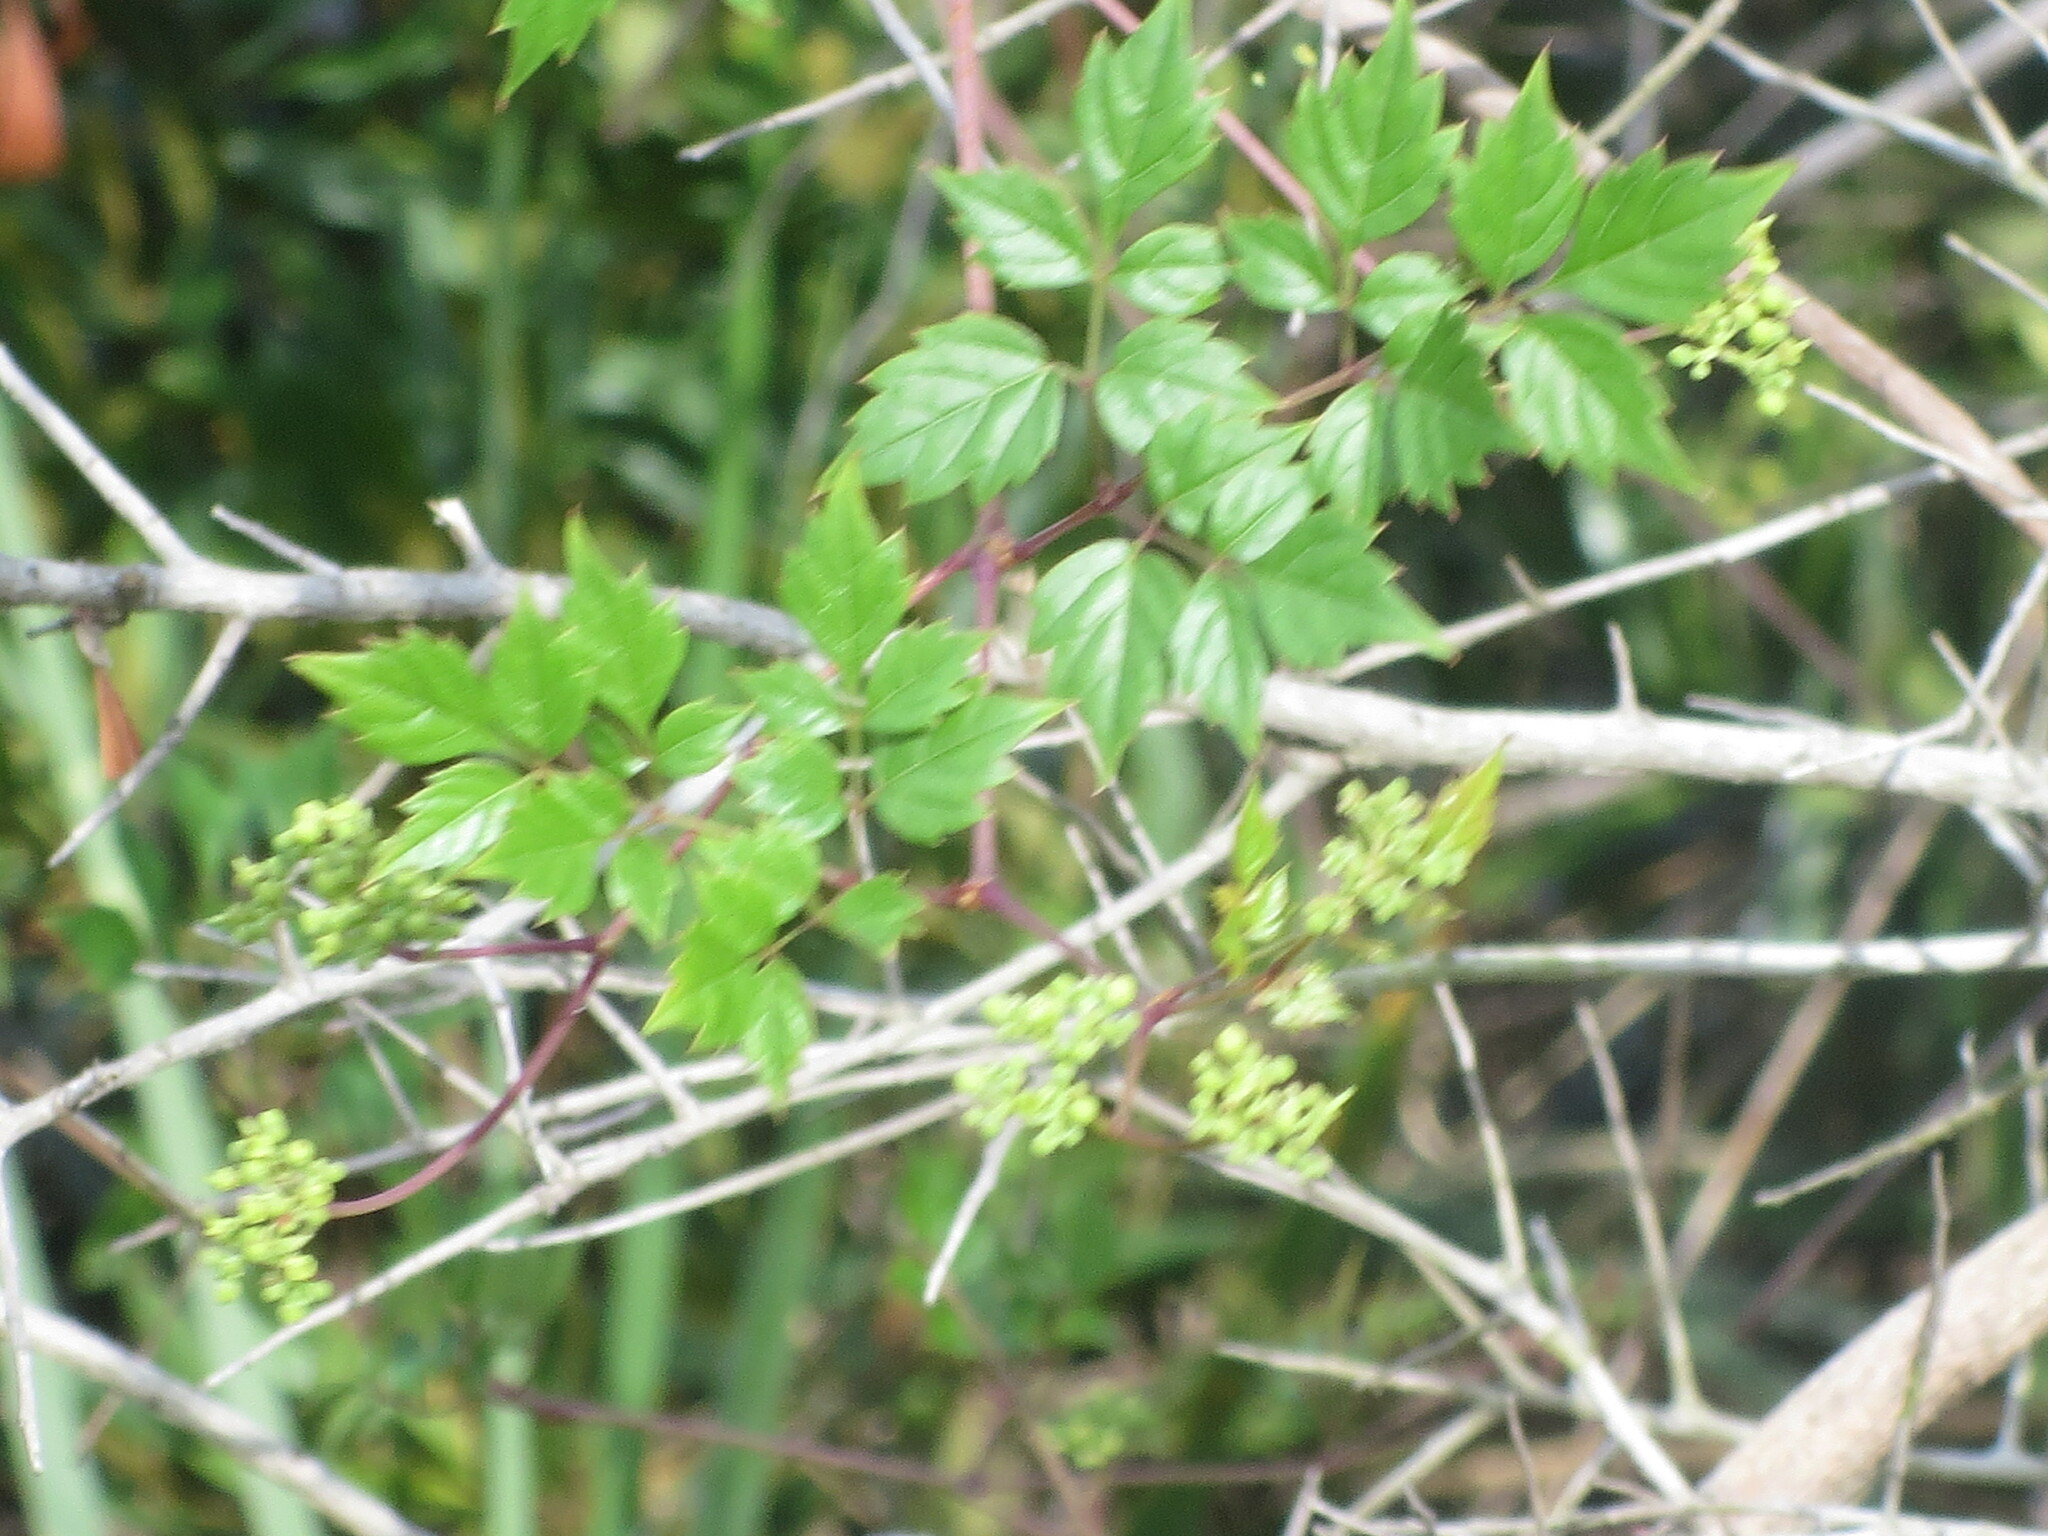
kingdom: Plantae
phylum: Tracheophyta
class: Magnoliopsida
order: Vitales
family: Vitaceae
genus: Nekemias
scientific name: Nekemias arborea
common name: Peppervine
